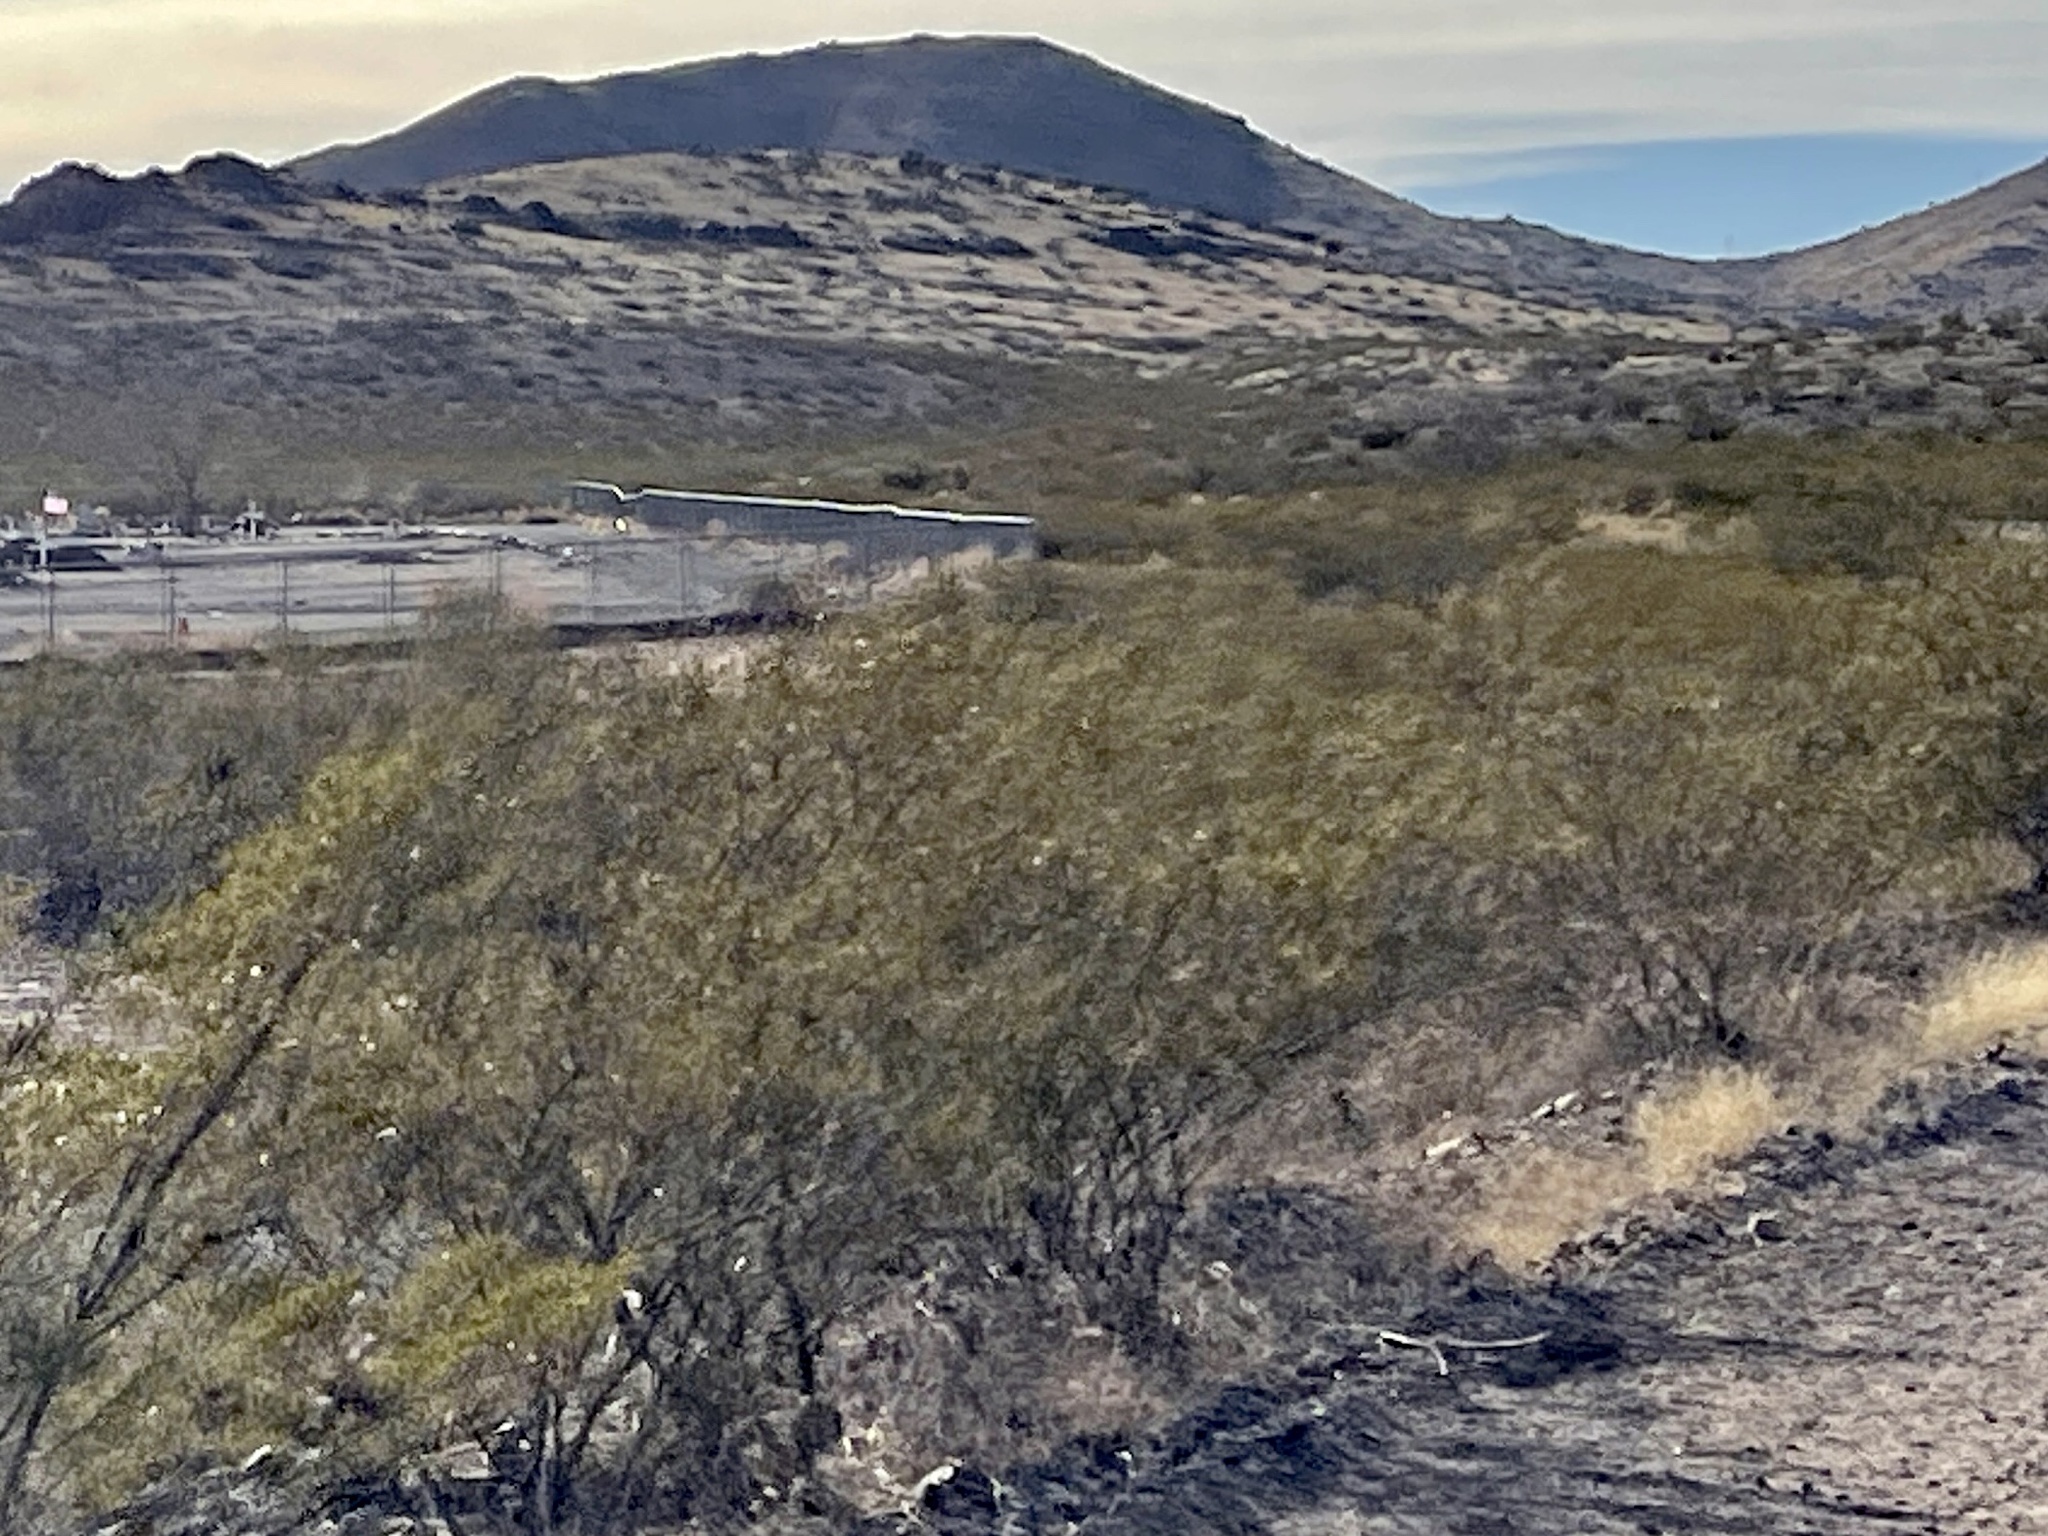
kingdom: Plantae
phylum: Tracheophyta
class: Magnoliopsida
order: Zygophyllales
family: Zygophyllaceae
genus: Larrea
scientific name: Larrea tridentata
